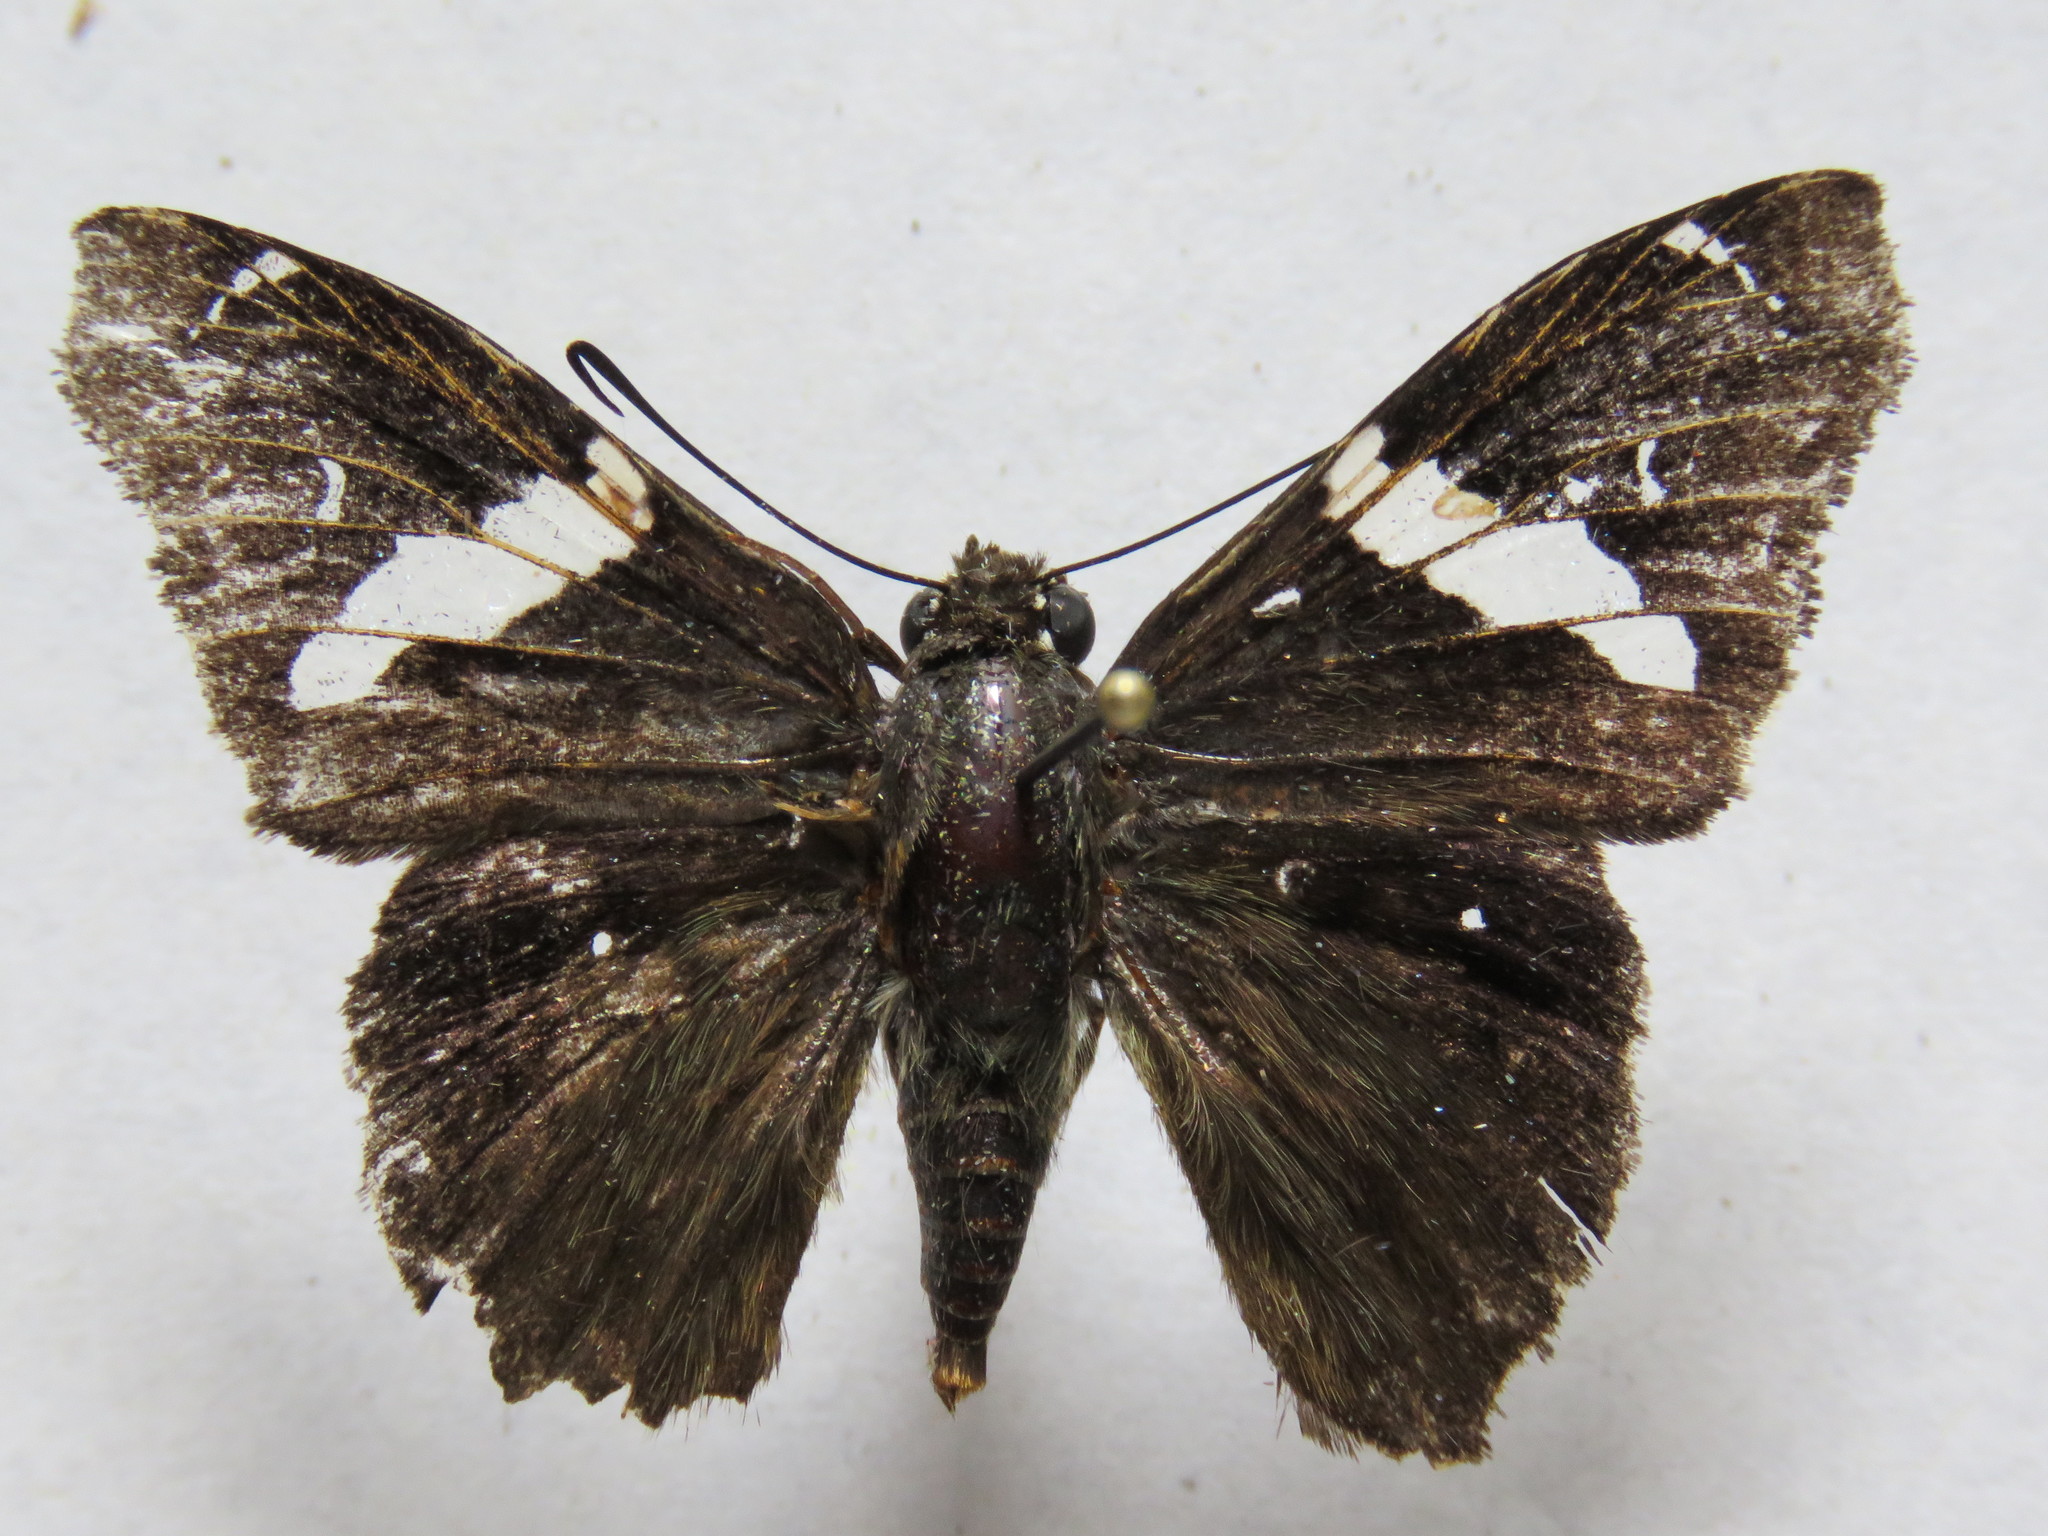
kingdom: Animalia
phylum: Arthropoda
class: Insecta
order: Lepidoptera
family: Hesperiidae
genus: Spathilepia
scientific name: Spathilepia clonius
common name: Falcate skipper
